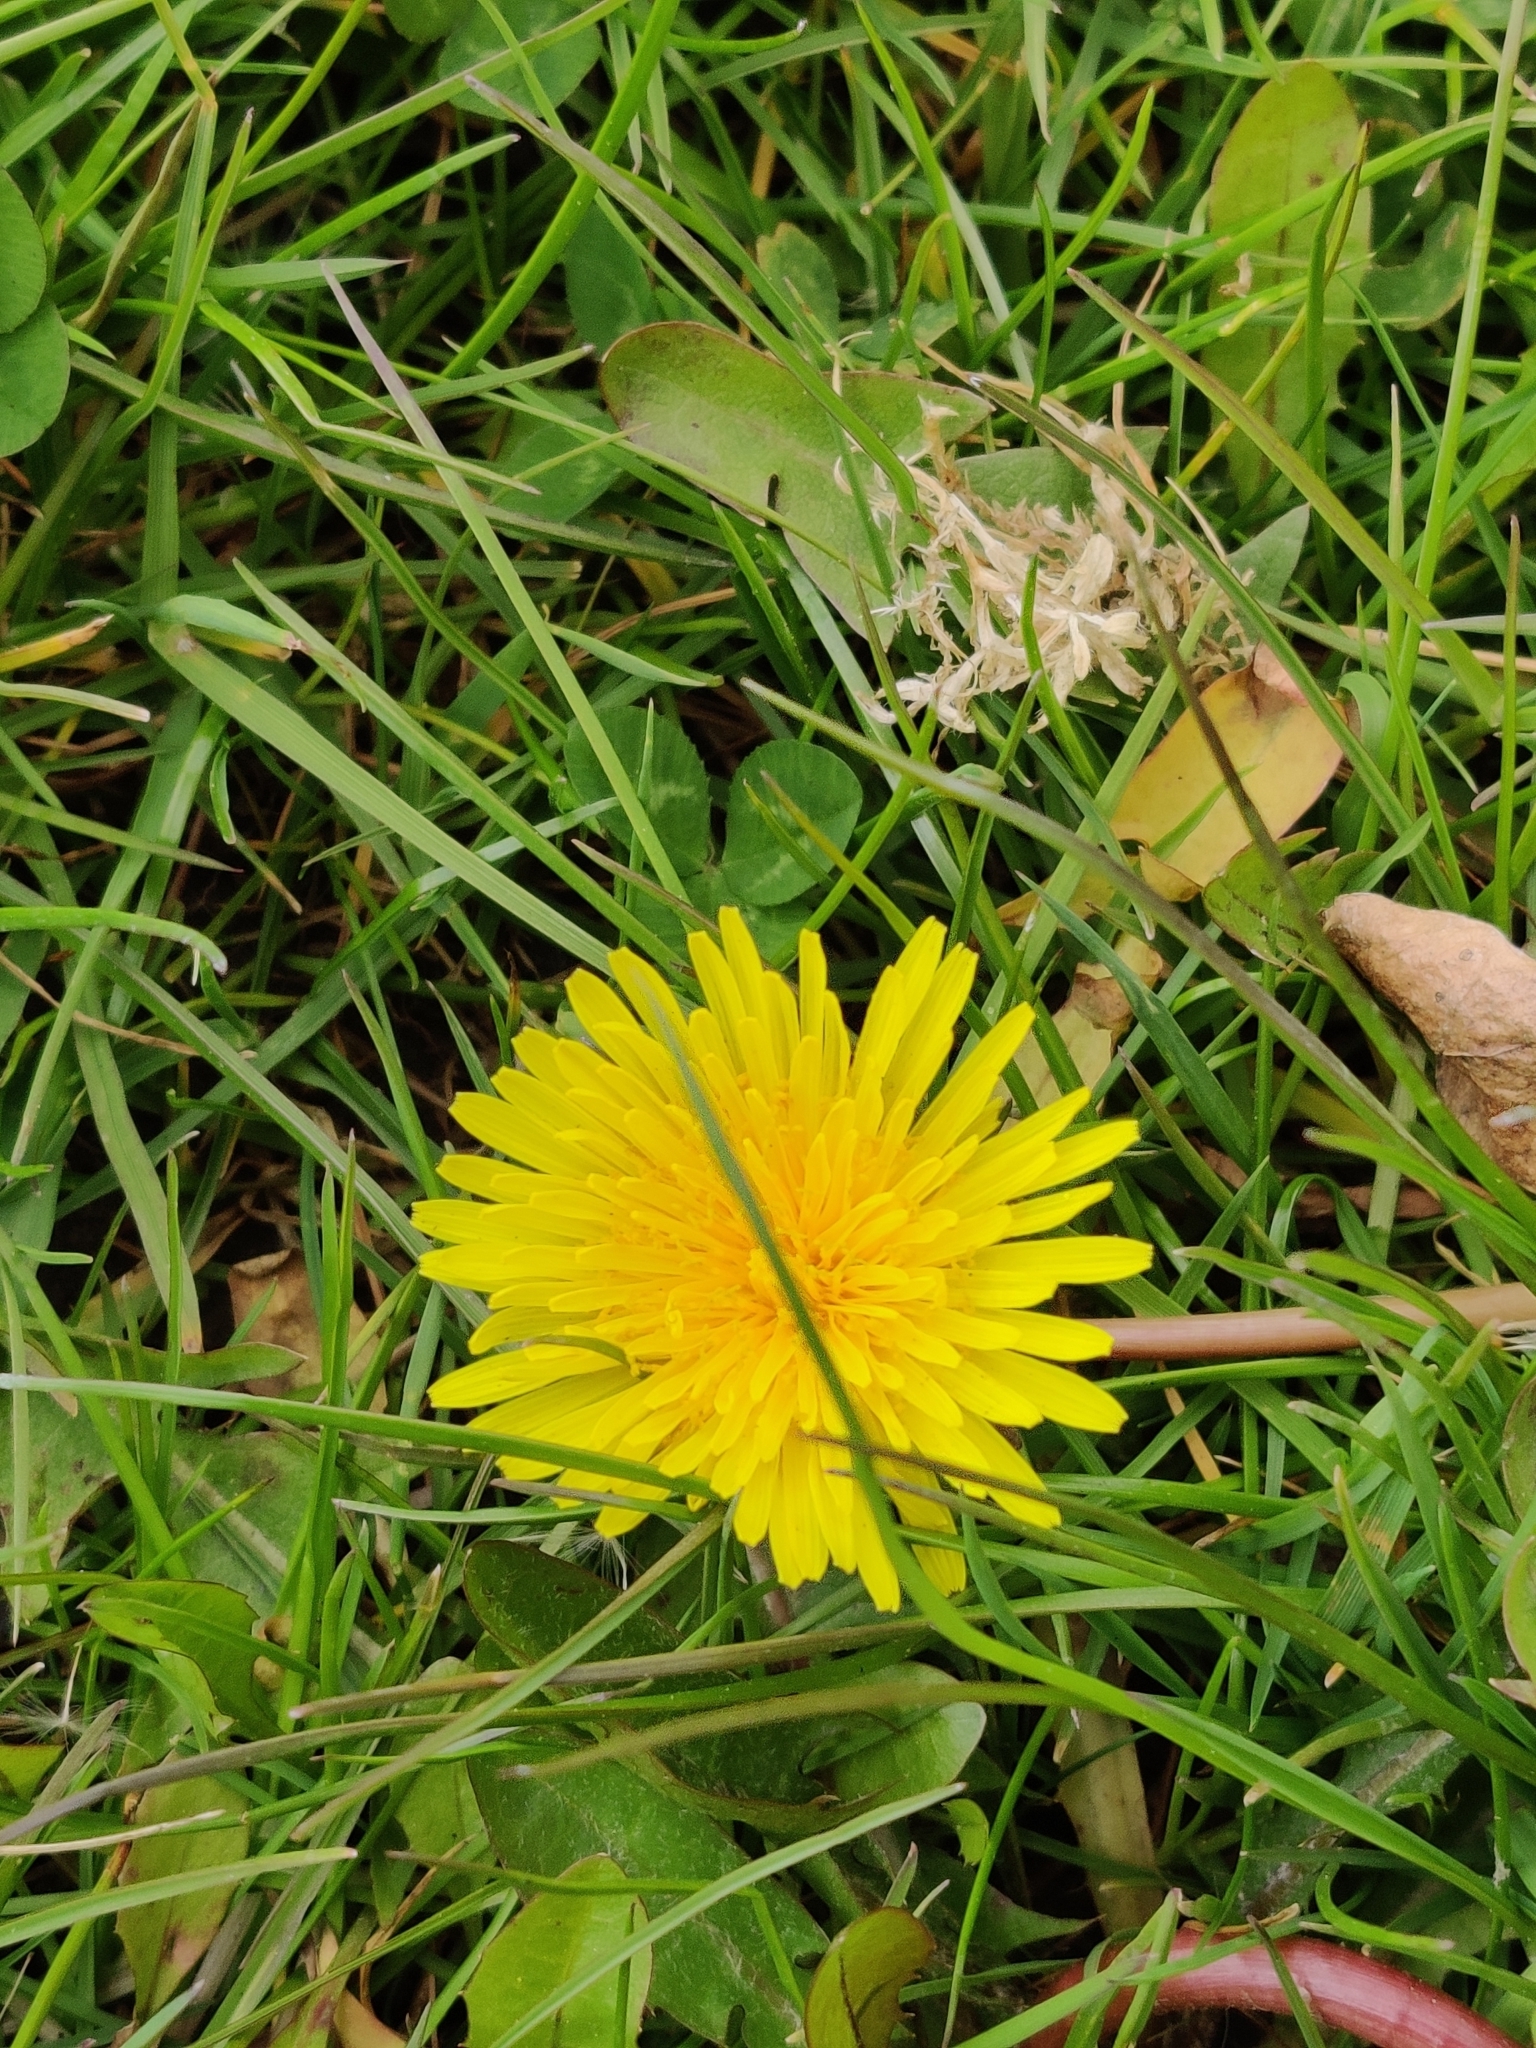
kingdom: Plantae
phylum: Tracheophyta
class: Magnoliopsida
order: Asterales
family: Asteraceae
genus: Taraxacum
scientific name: Taraxacum officinale
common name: Common dandelion
